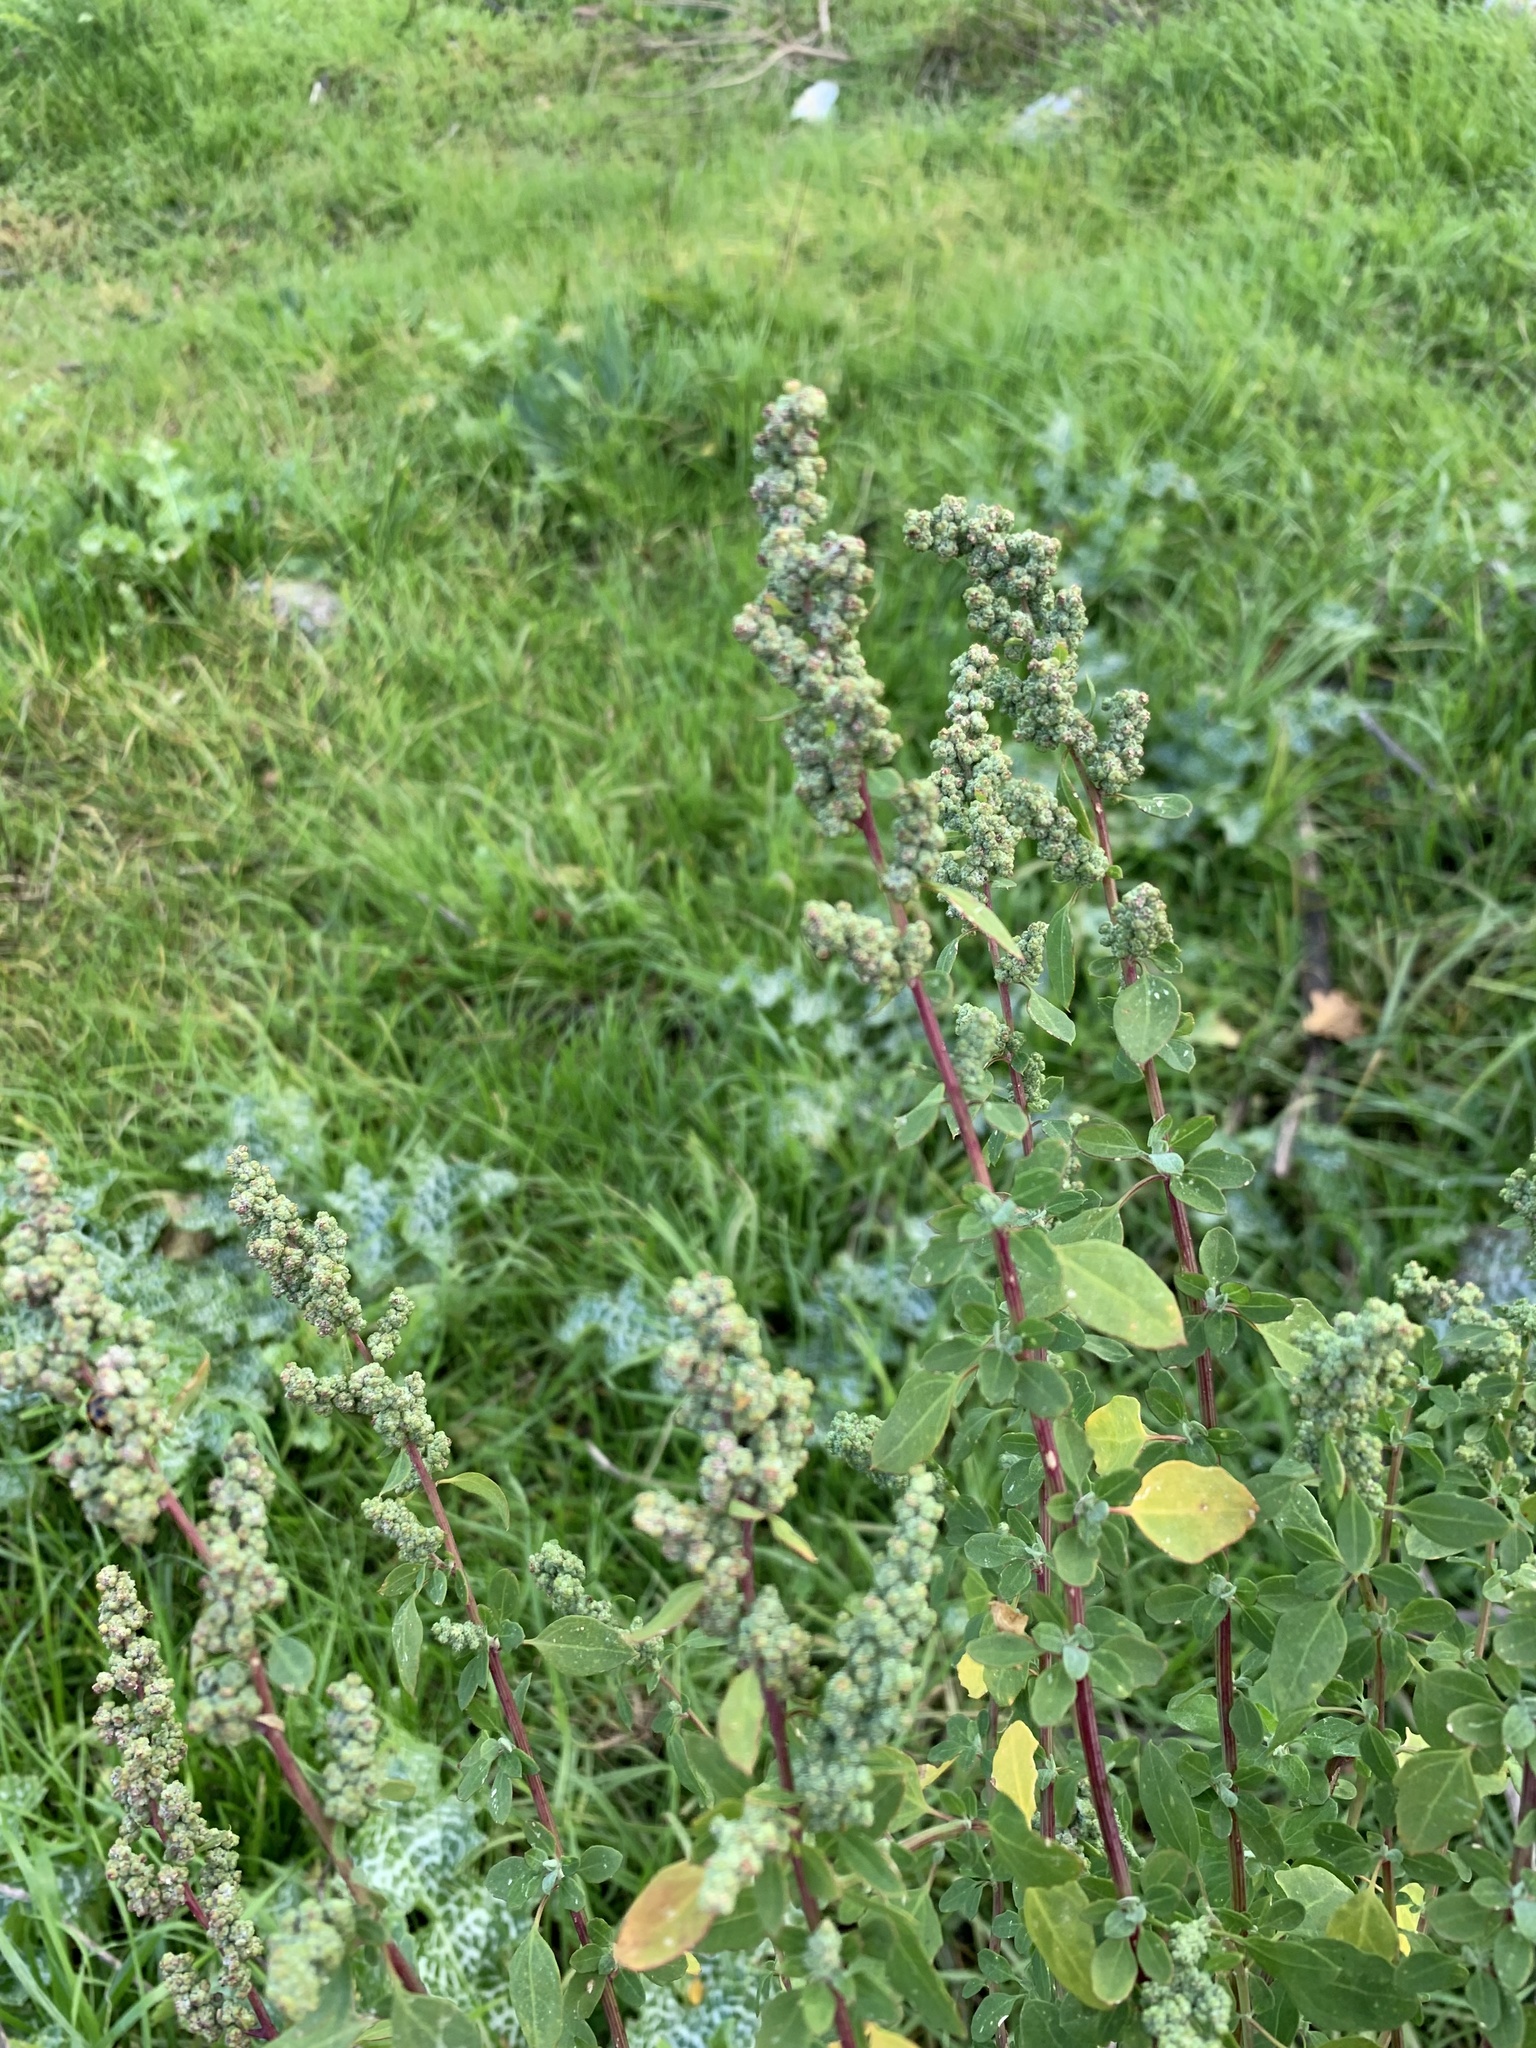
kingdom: Plantae
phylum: Tracheophyta
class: Magnoliopsida
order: Caryophyllales
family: Amaranthaceae
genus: Chenopodium
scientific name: Chenopodium album
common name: Fat-hen
